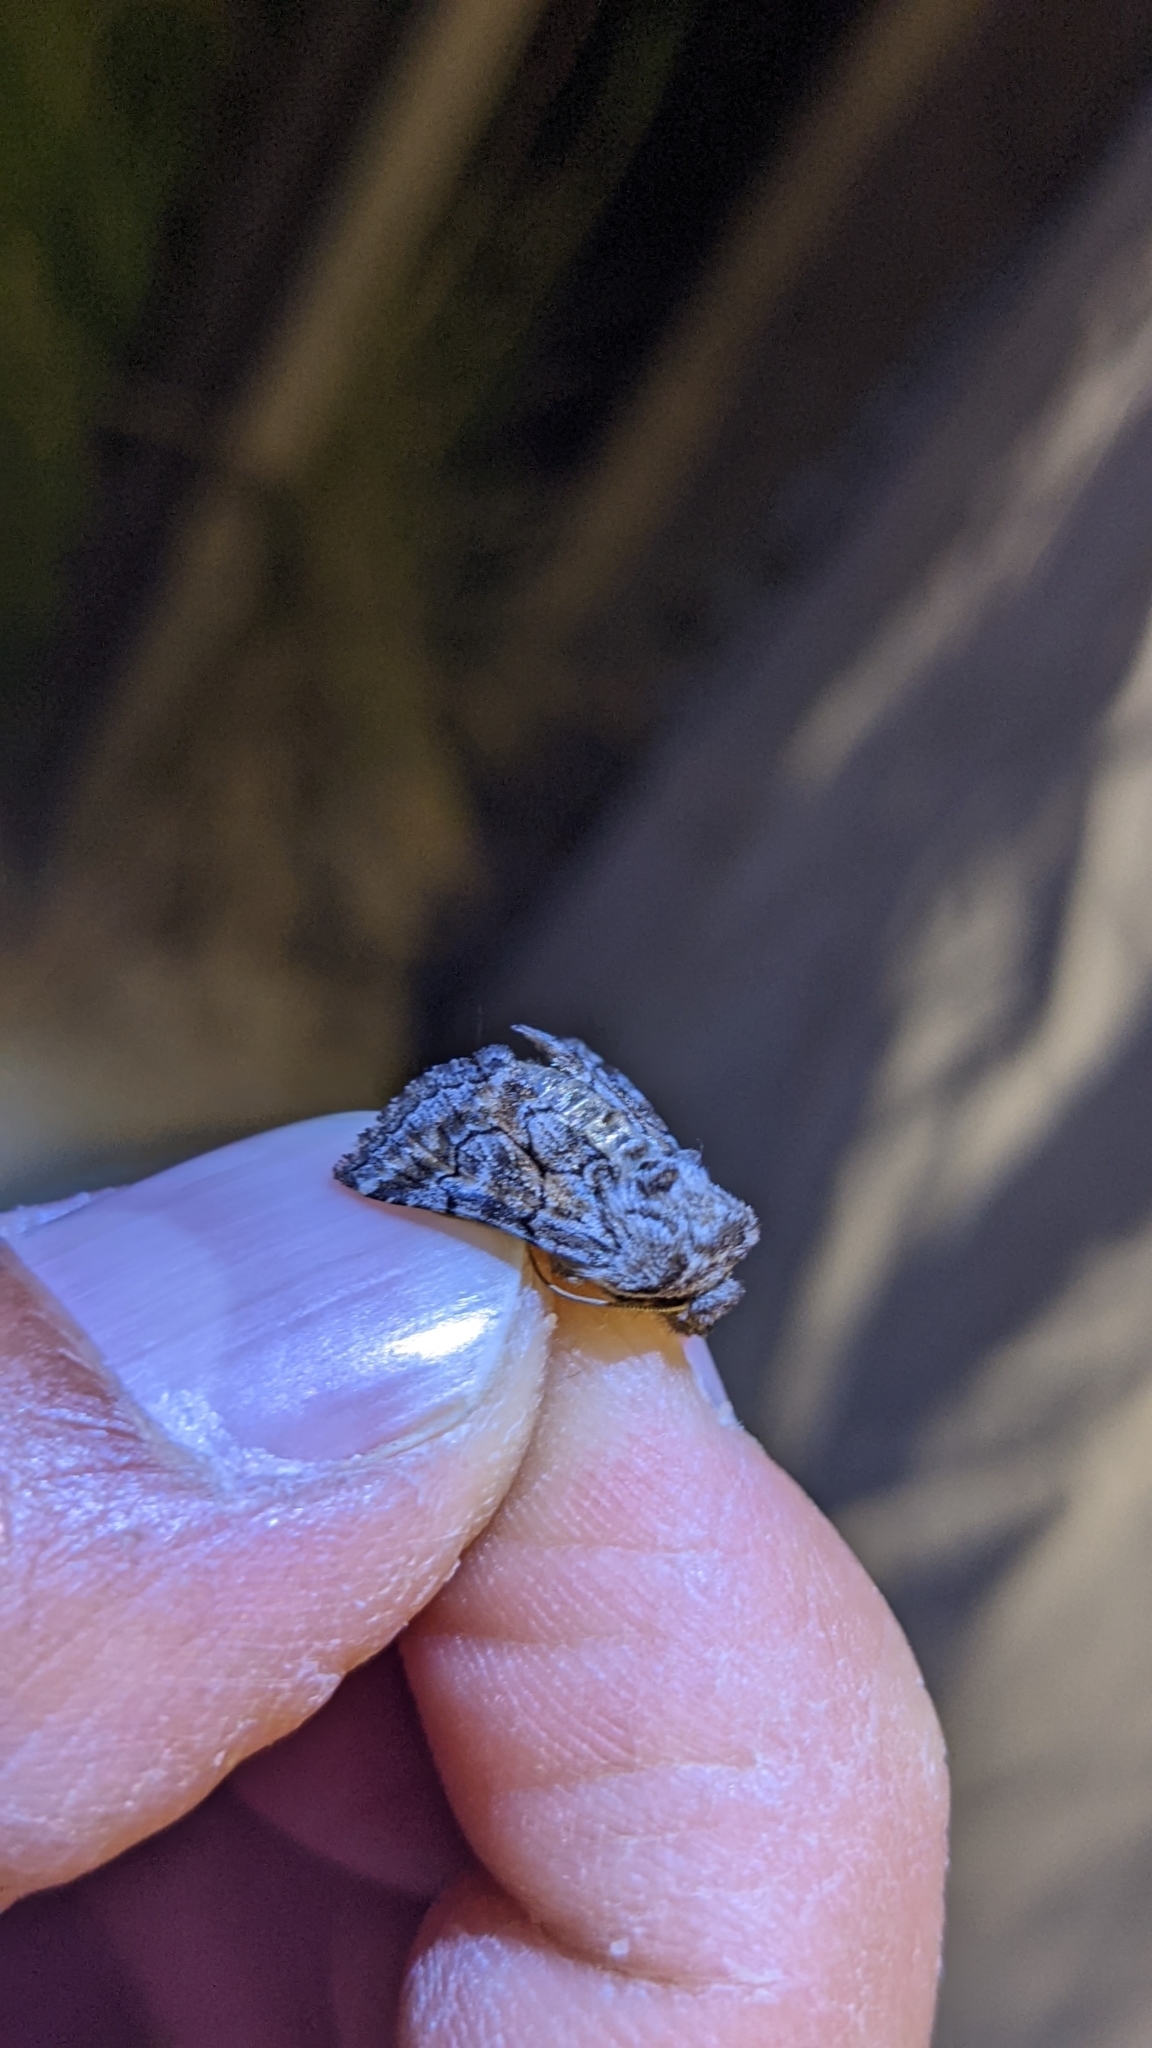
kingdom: Animalia
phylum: Arthropoda
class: Insecta
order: Lepidoptera
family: Noctuidae
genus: Cleonymia
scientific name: Cleonymia yvanii
